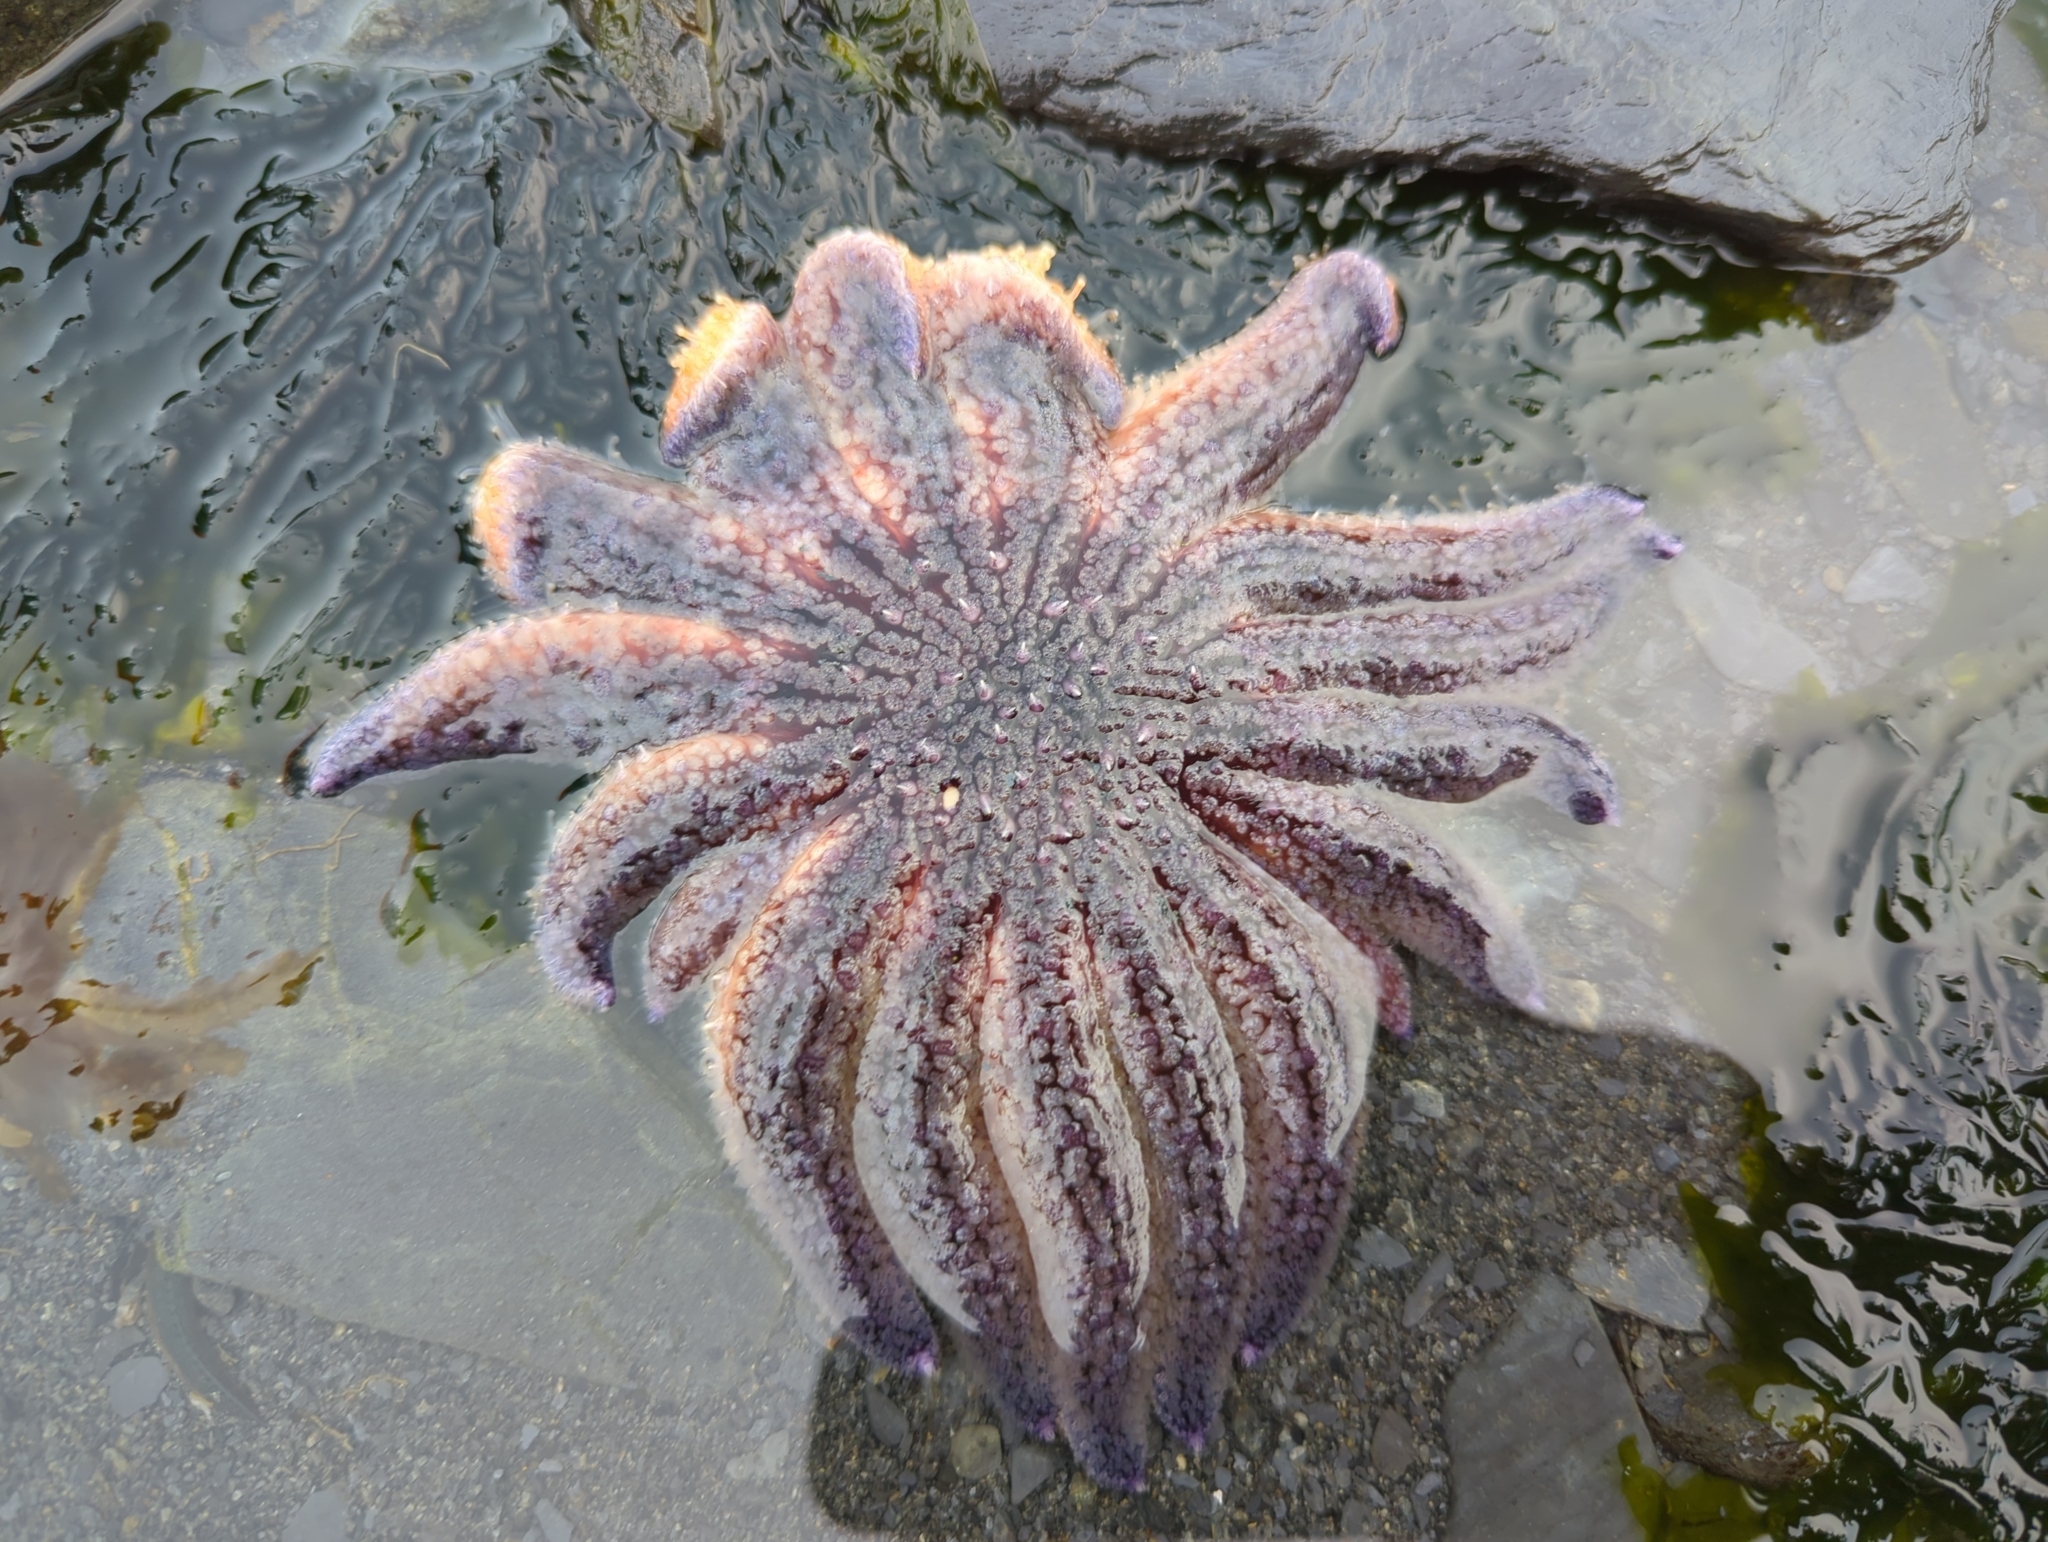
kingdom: Animalia
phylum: Echinodermata
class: Asteroidea
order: Forcipulatida
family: Asteriidae
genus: Pycnopodia
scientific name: Pycnopodia helianthoides
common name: Rag mop
